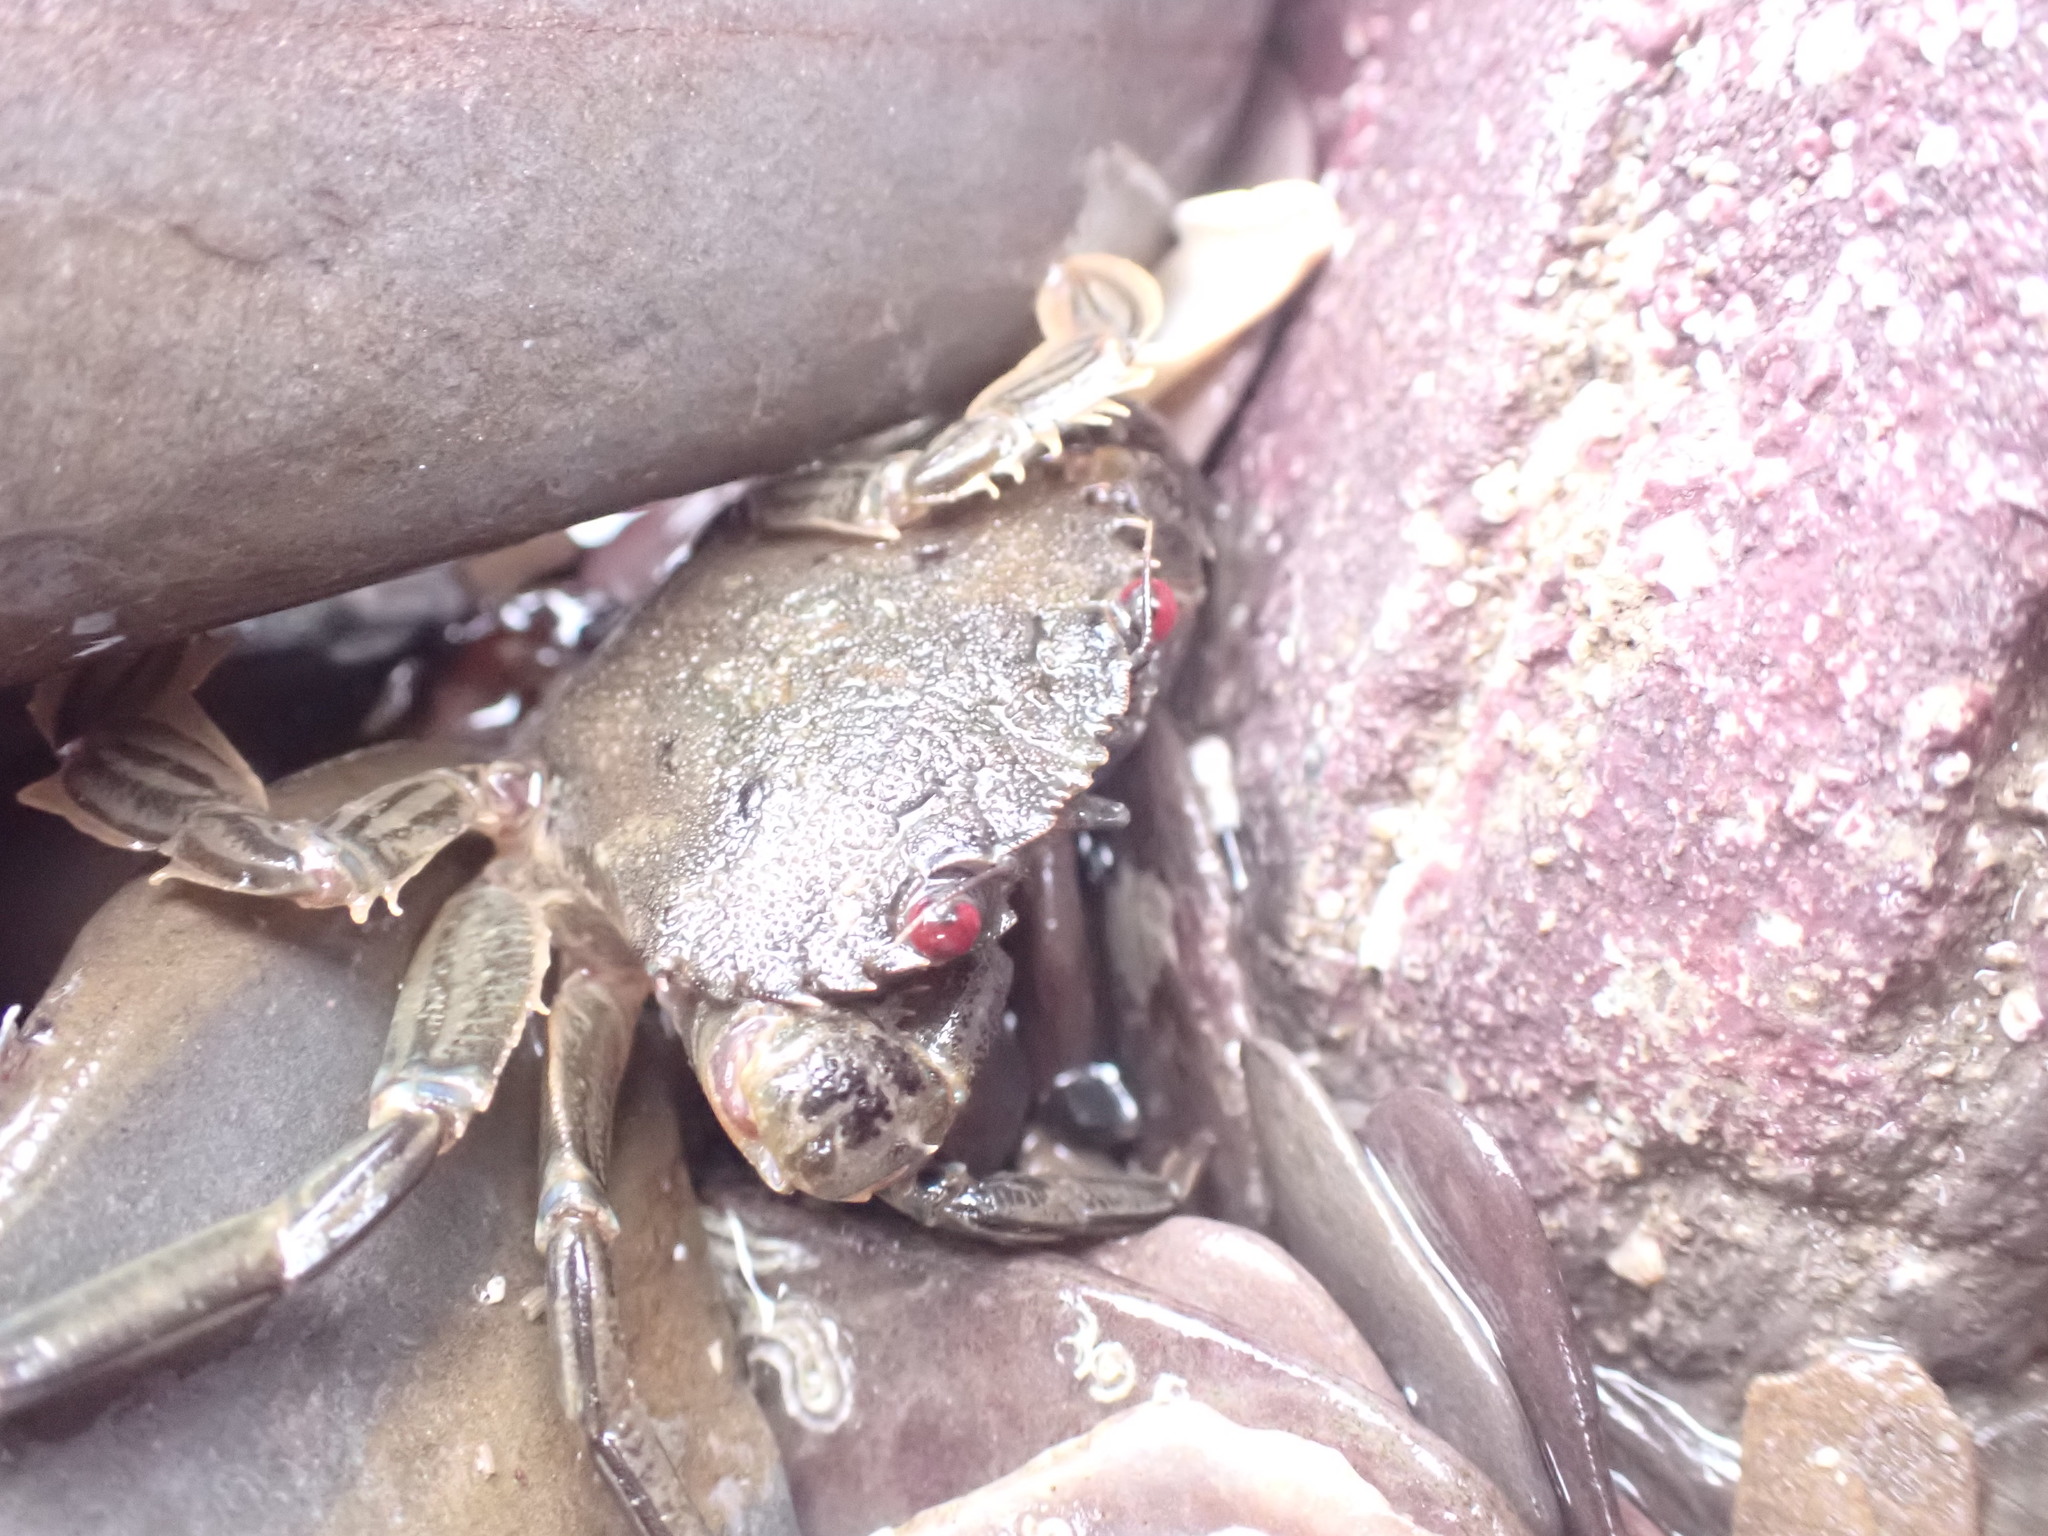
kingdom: Animalia
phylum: Arthropoda
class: Malacostraca
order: Decapoda
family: Polybiidae
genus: Necora
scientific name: Necora puber
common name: Velvet swimming crab
